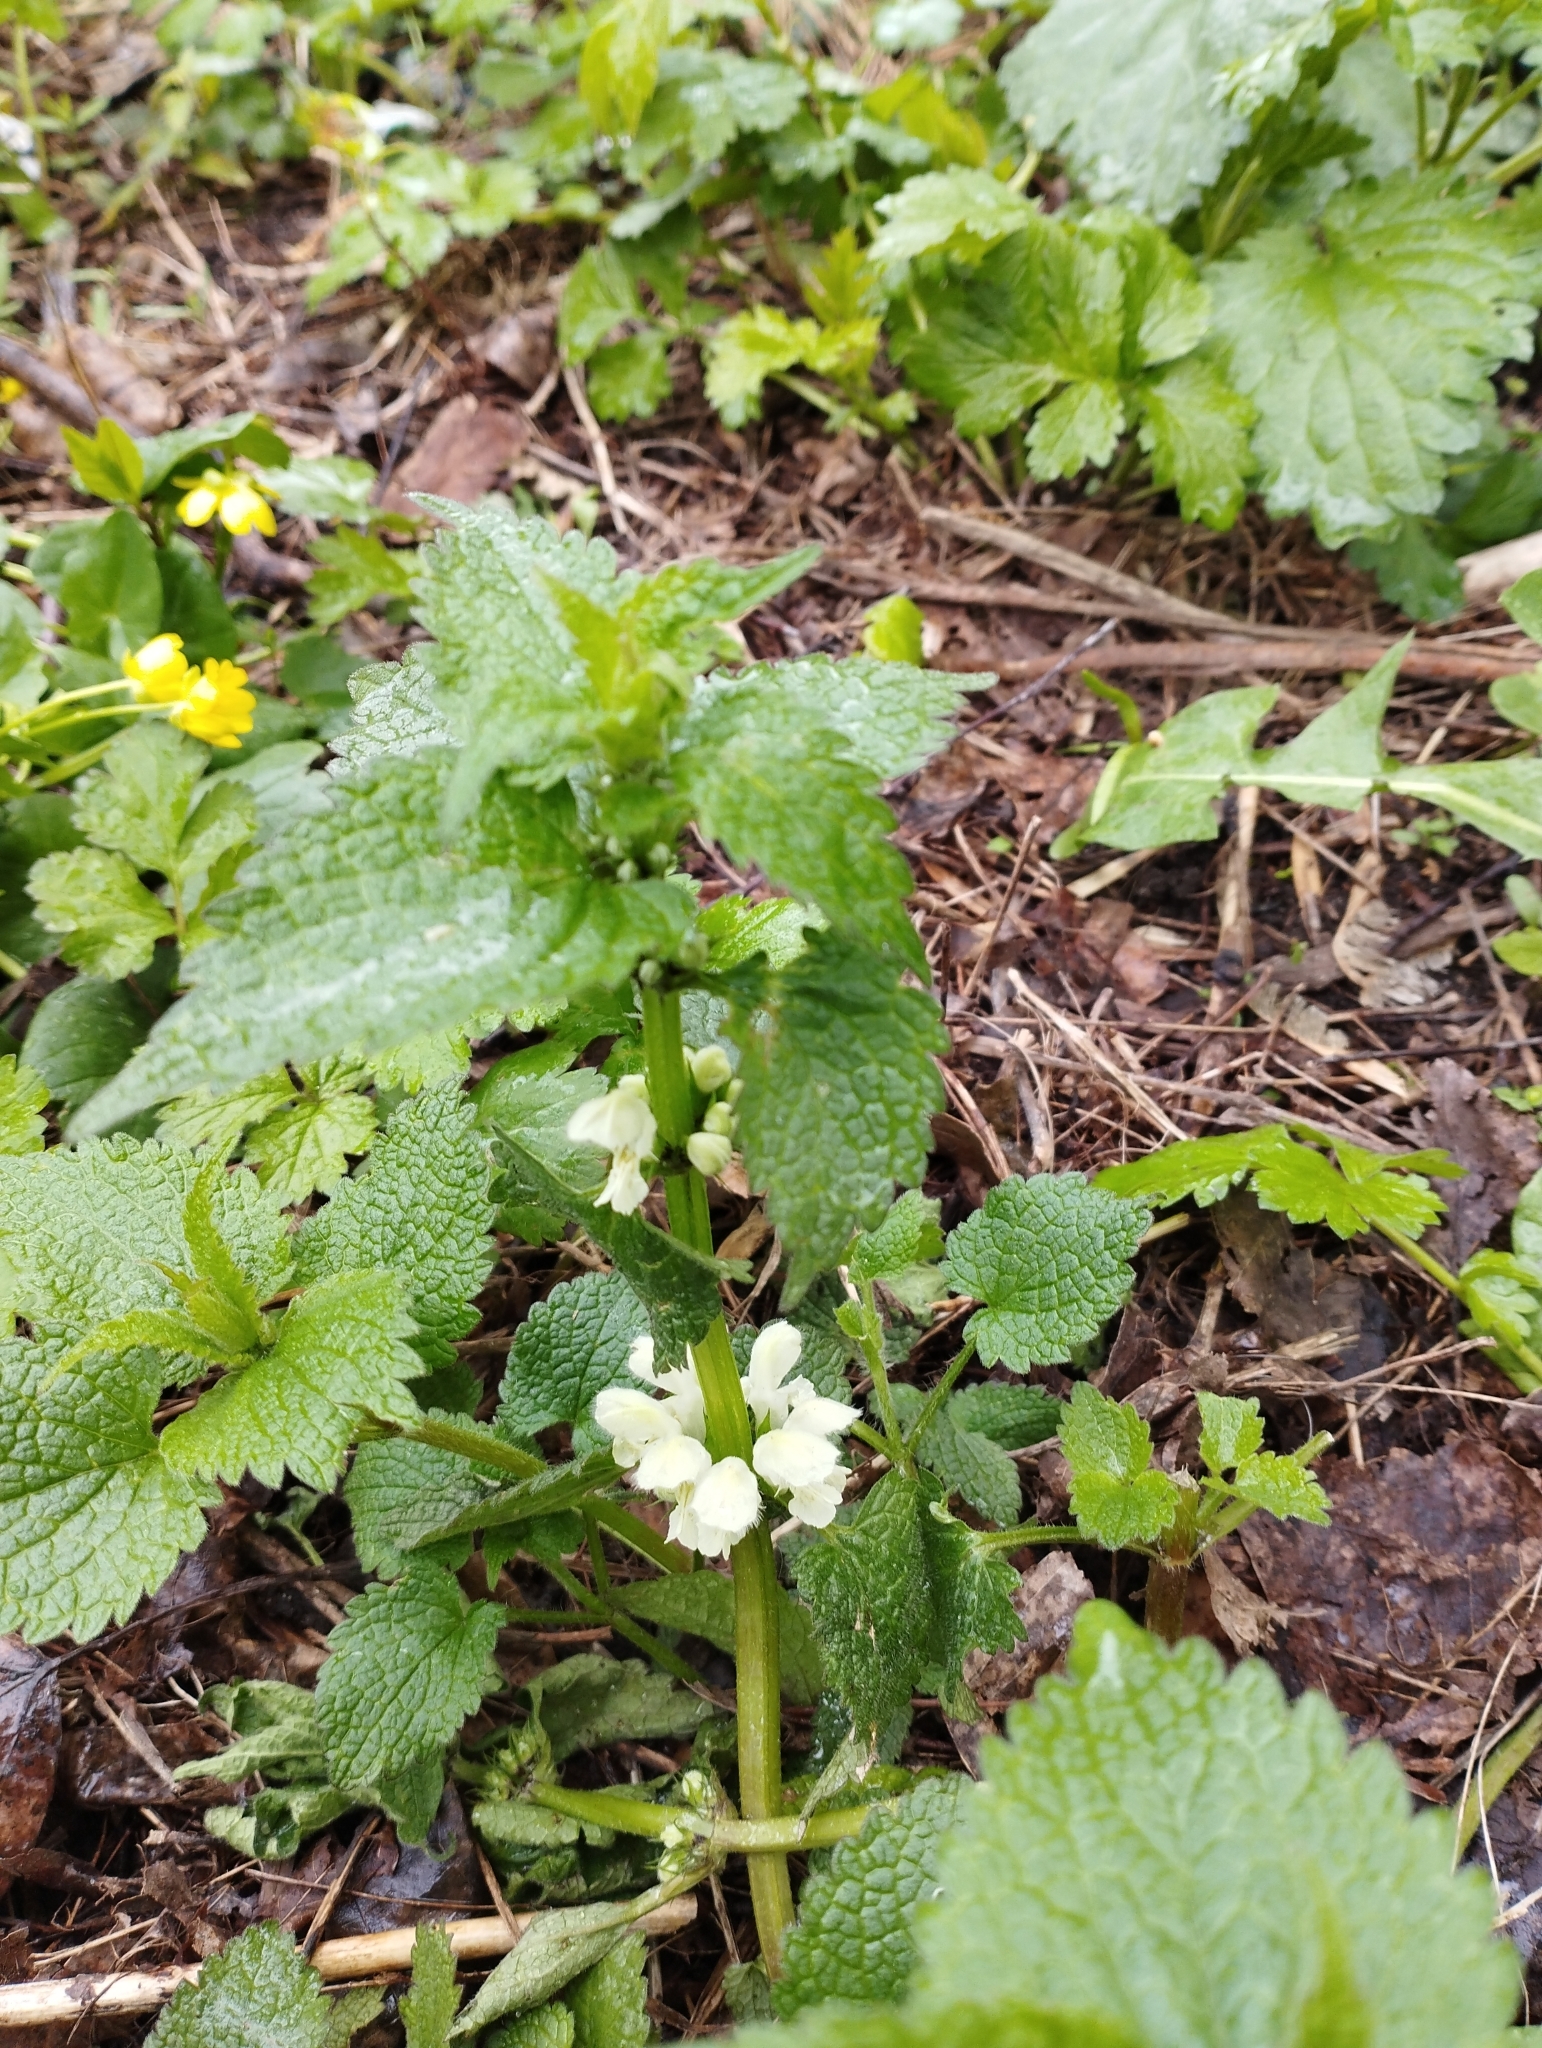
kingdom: Plantae
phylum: Tracheophyta
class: Magnoliopsida
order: Lamiales
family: Lamiaceae
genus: Lamium
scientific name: Lamium album
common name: White dead-nettle
